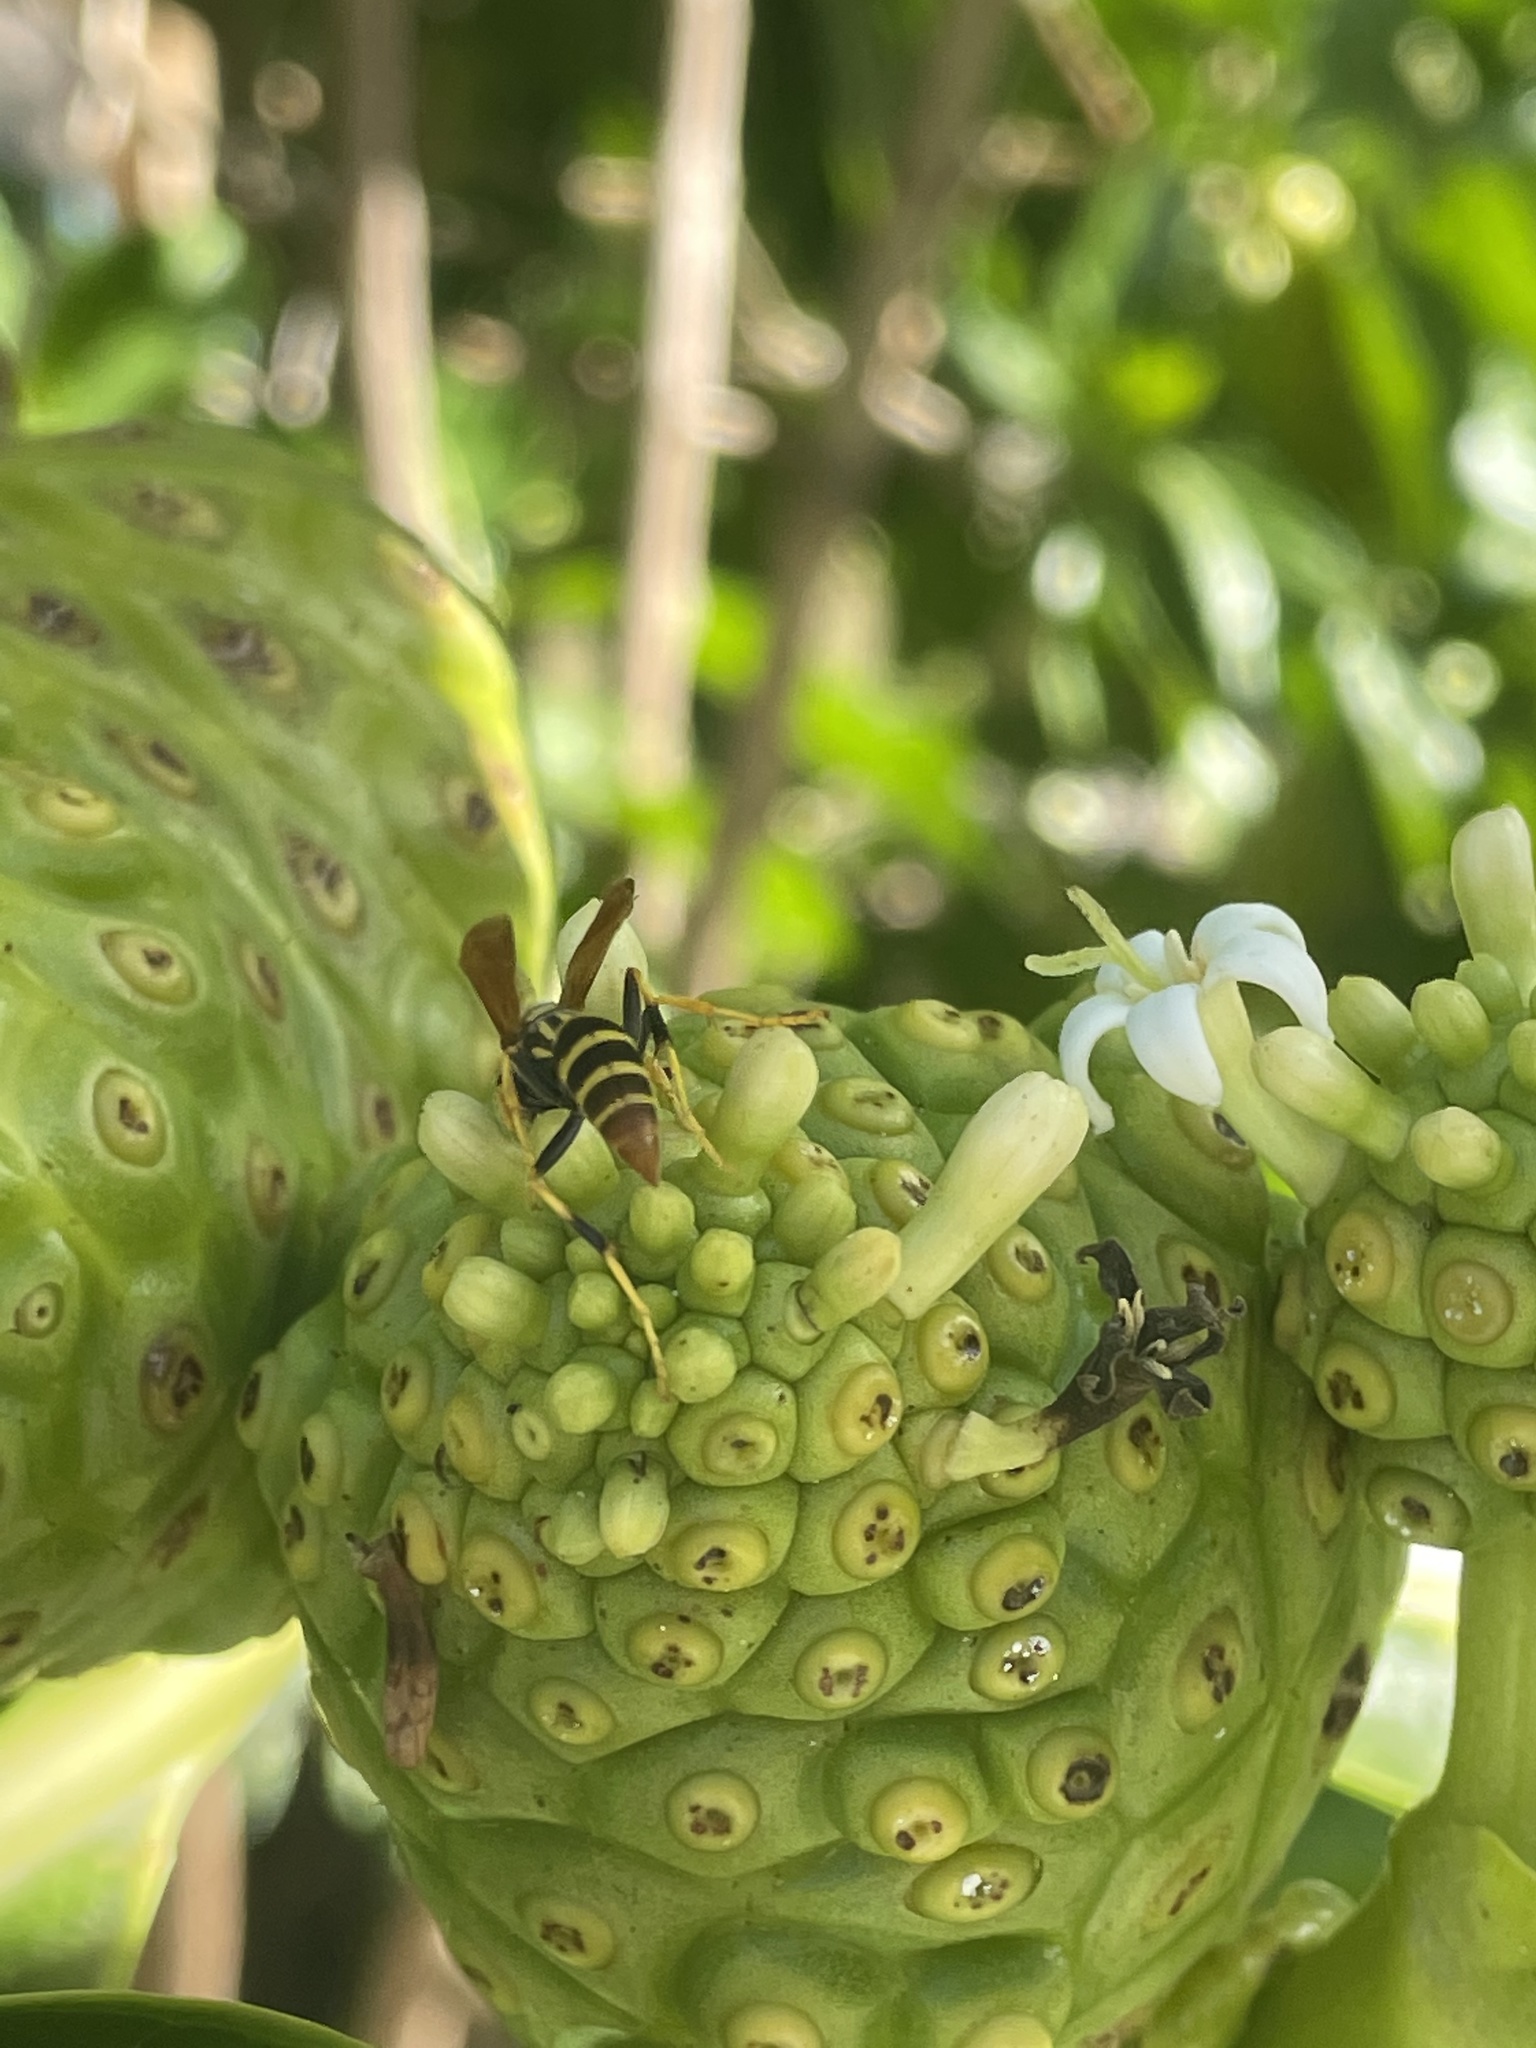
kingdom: Animalia
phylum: Arthropoda
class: Insecta
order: Hymenoptera
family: Eumenidae
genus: Polistes
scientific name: Polistes crinitus
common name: Jack spaniard
